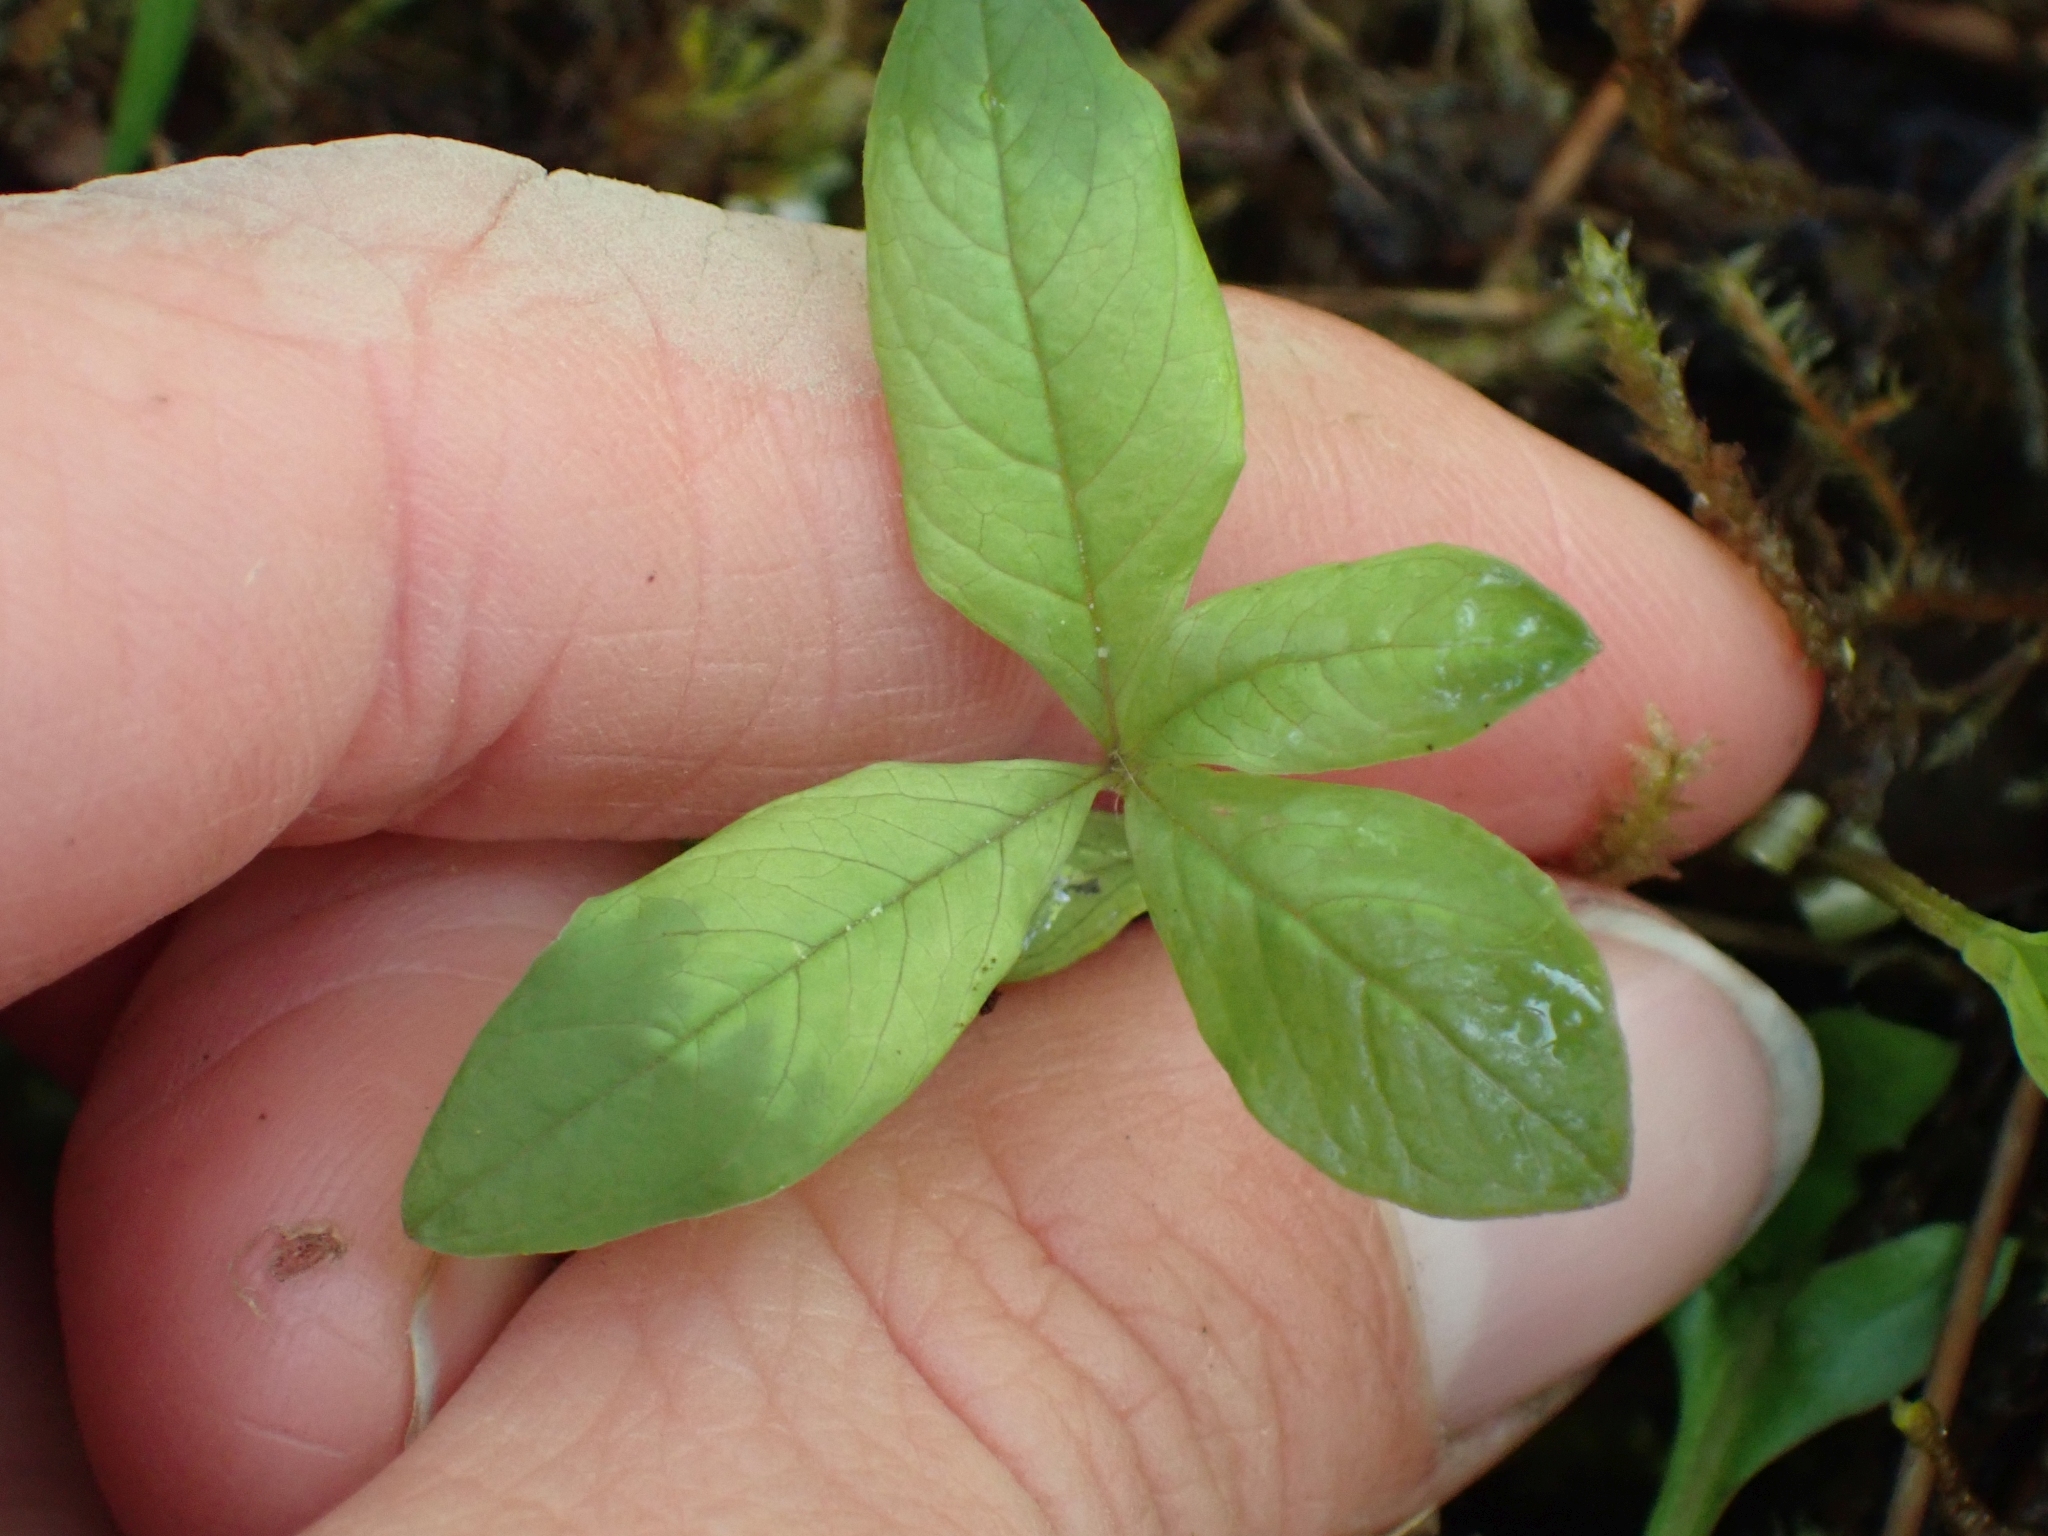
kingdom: Plantae
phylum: Tracheophyta
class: Magnoliopsida
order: Ericales
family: Primulaceae
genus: Lysimachia
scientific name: Lysimachia latifolia
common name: Pacific starflower
